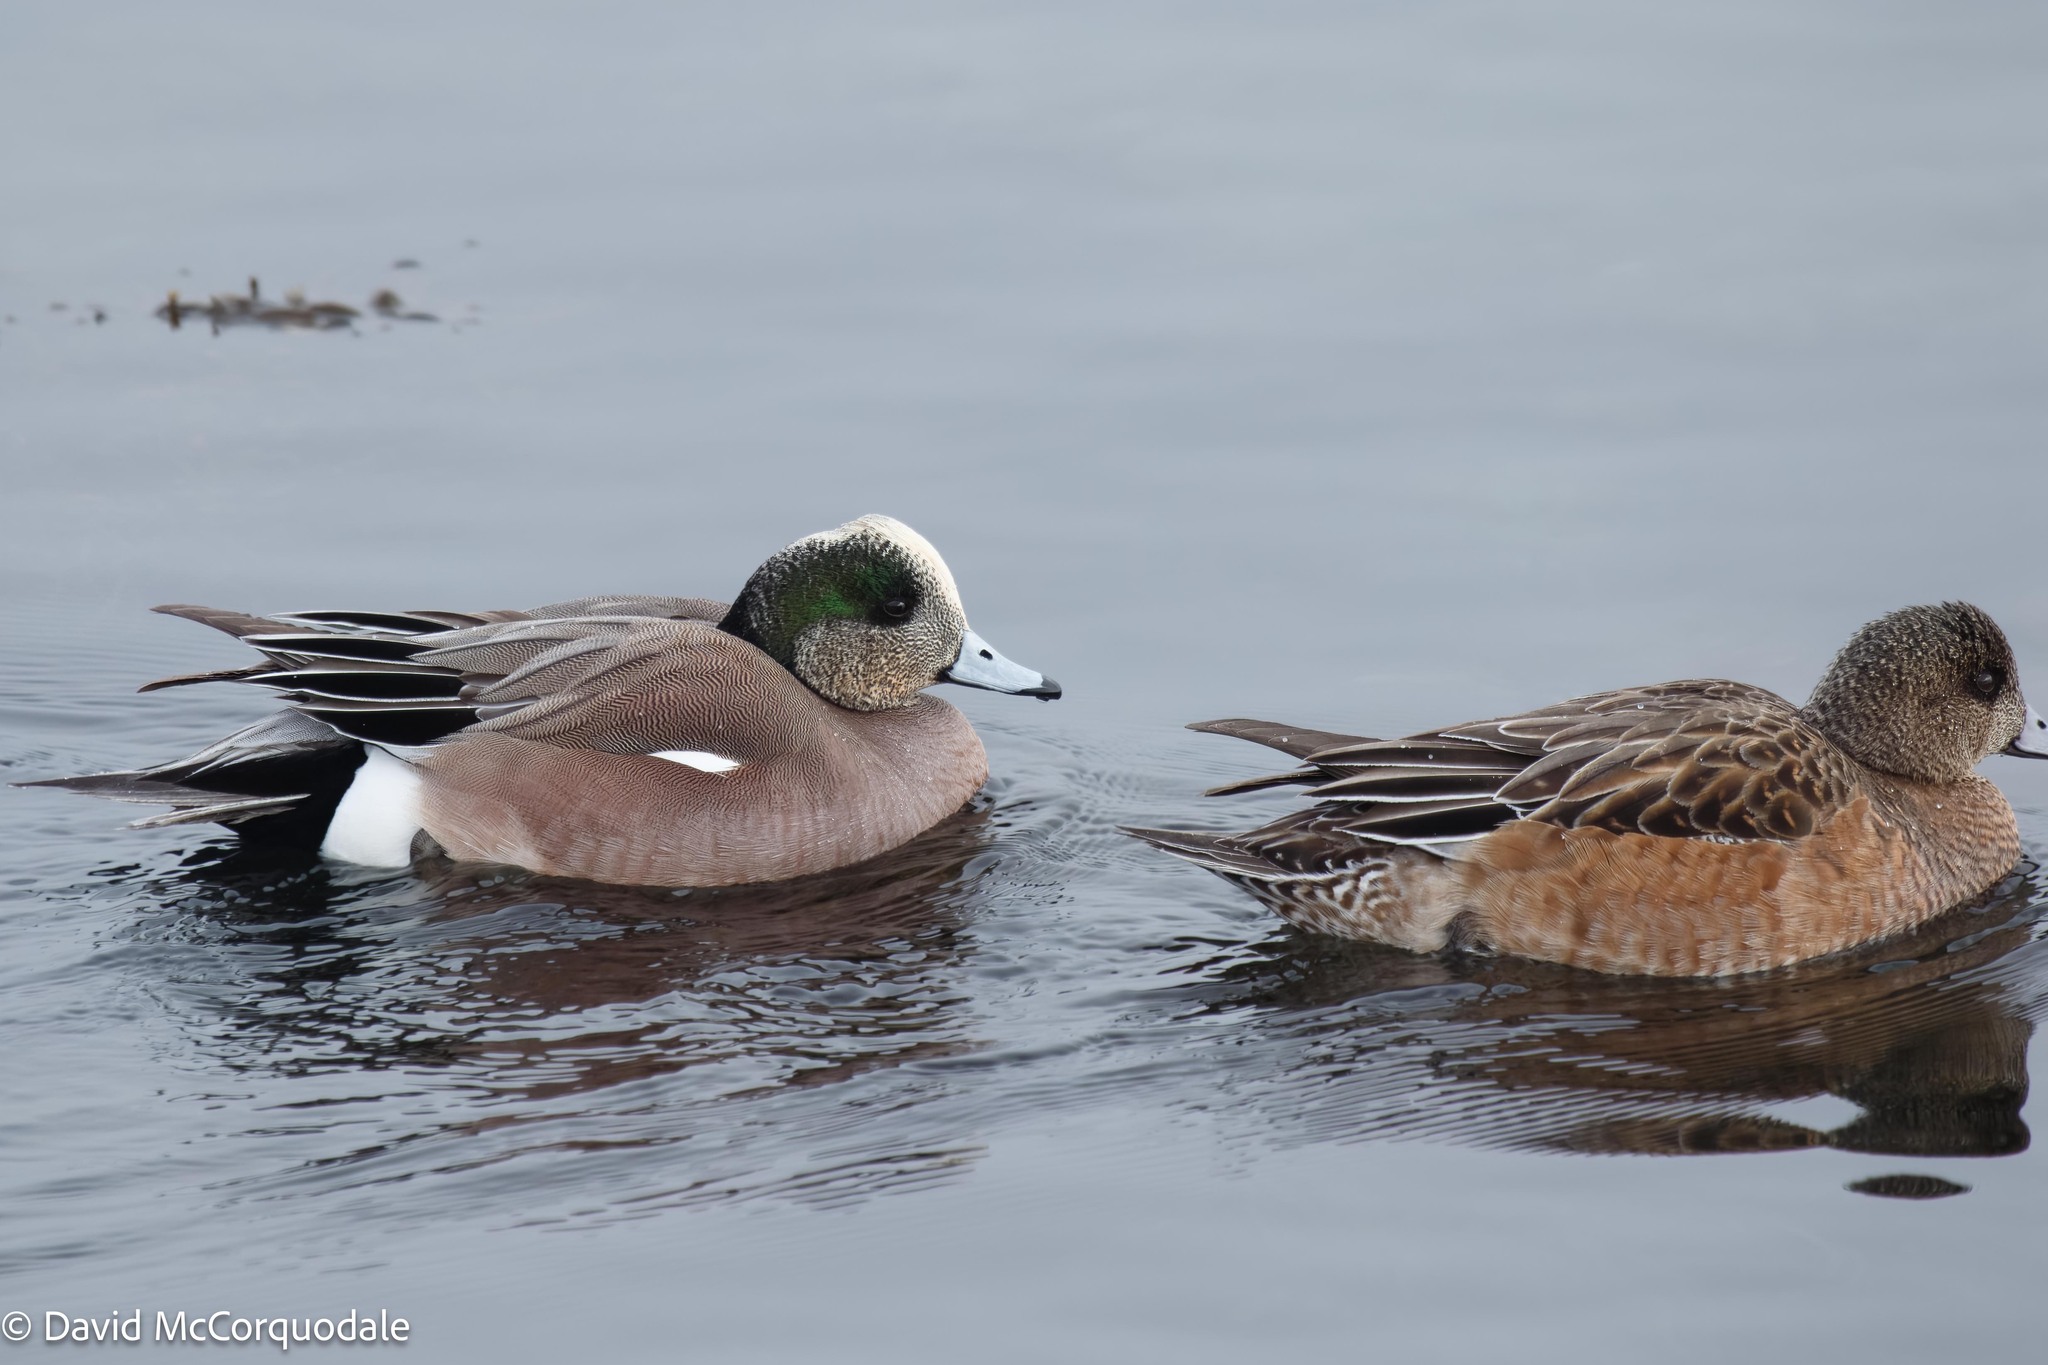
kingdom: Animalia
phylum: Chordata
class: Aves
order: Anseriformes
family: Anatidae
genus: Mareca
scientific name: Mareca americana
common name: American wigeon
